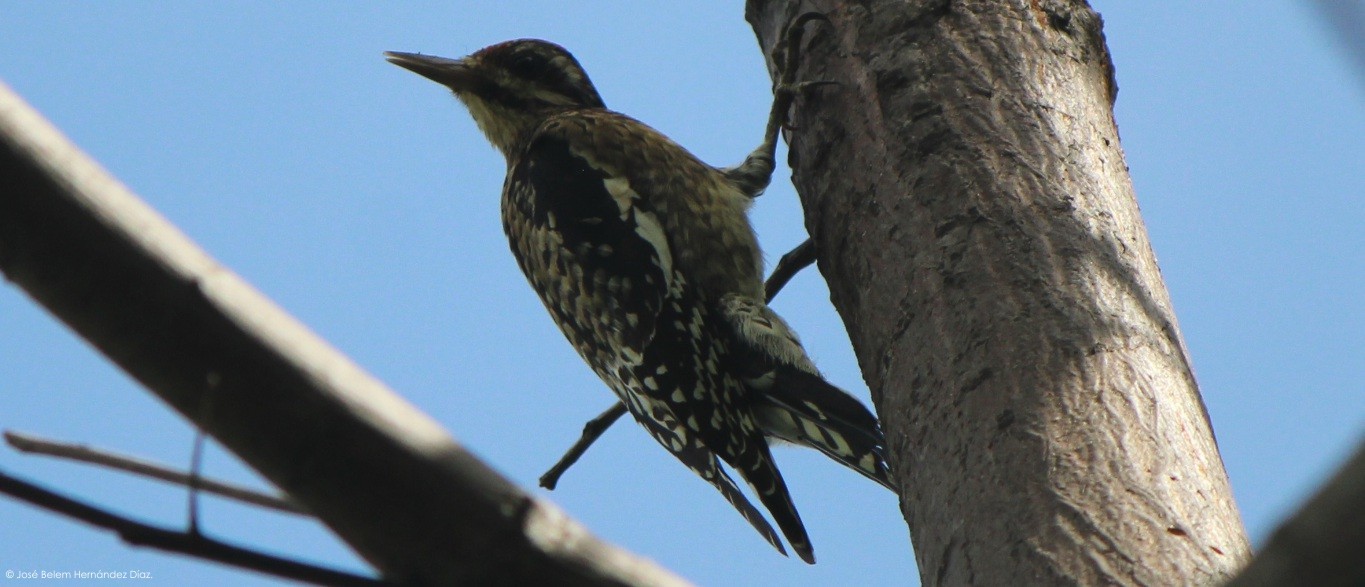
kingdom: Animalia
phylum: Chordata
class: Aves
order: Piciformes
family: Picidae
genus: Sphyrapicus
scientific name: Sphyrapicus varius
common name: Yellow-bellied sapsucker
